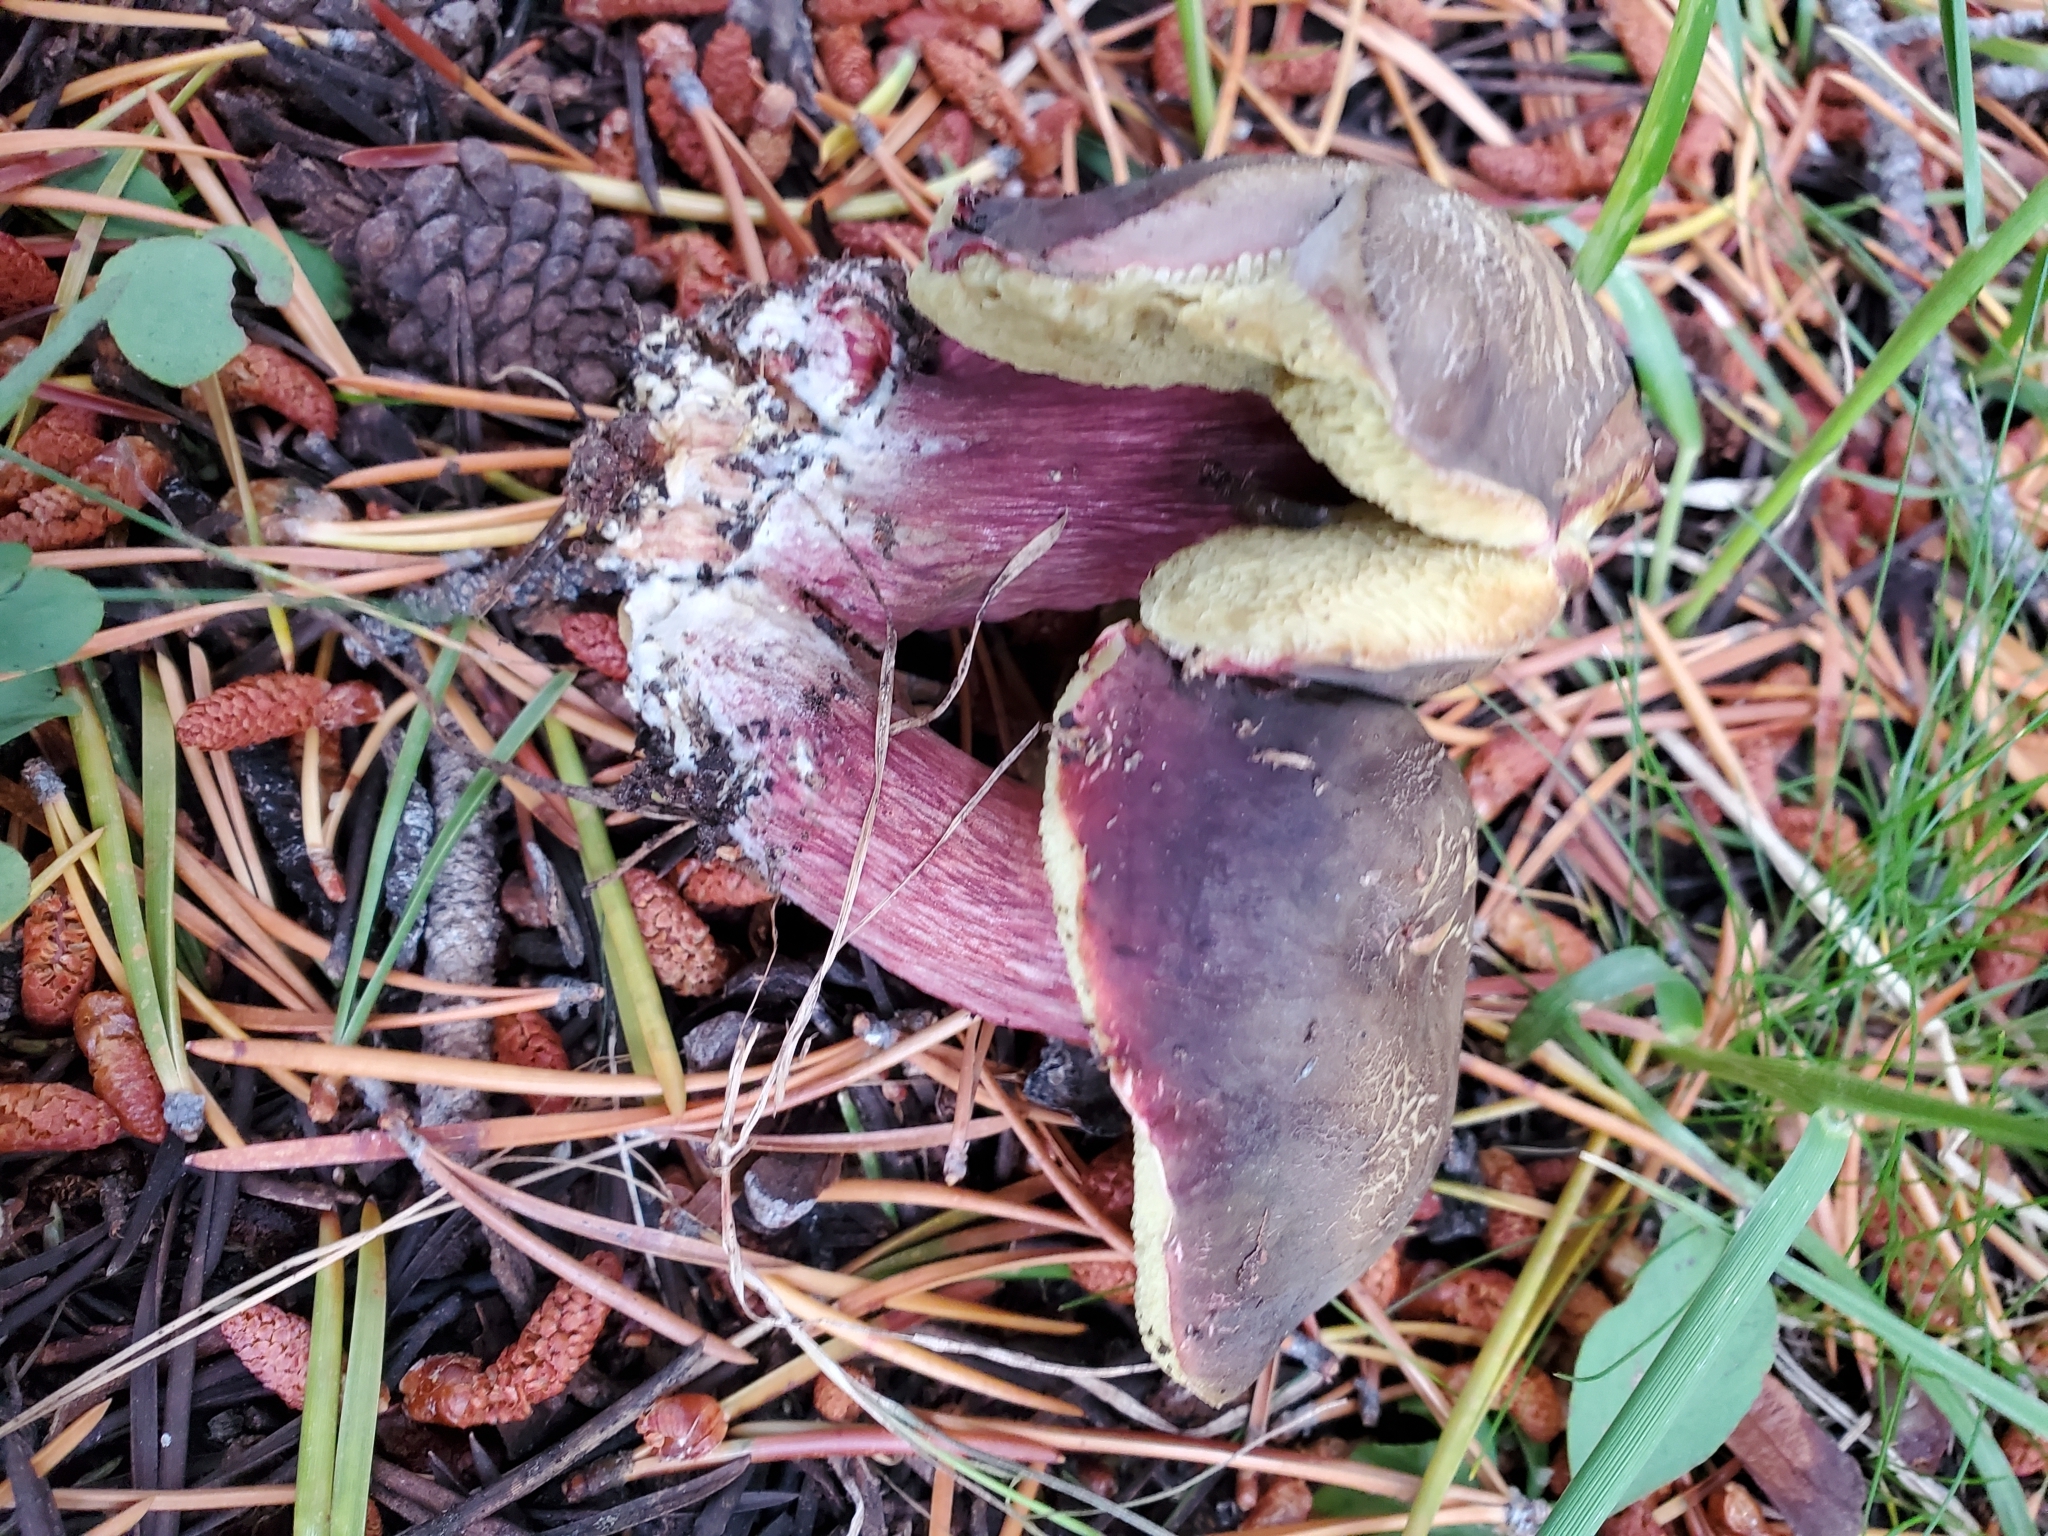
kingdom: Fungi
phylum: Basidiomycota
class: Agaricomycetes
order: Boletales
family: Boletaceae
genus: Xerocomellus
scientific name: Xerocomellus atropurpureus
